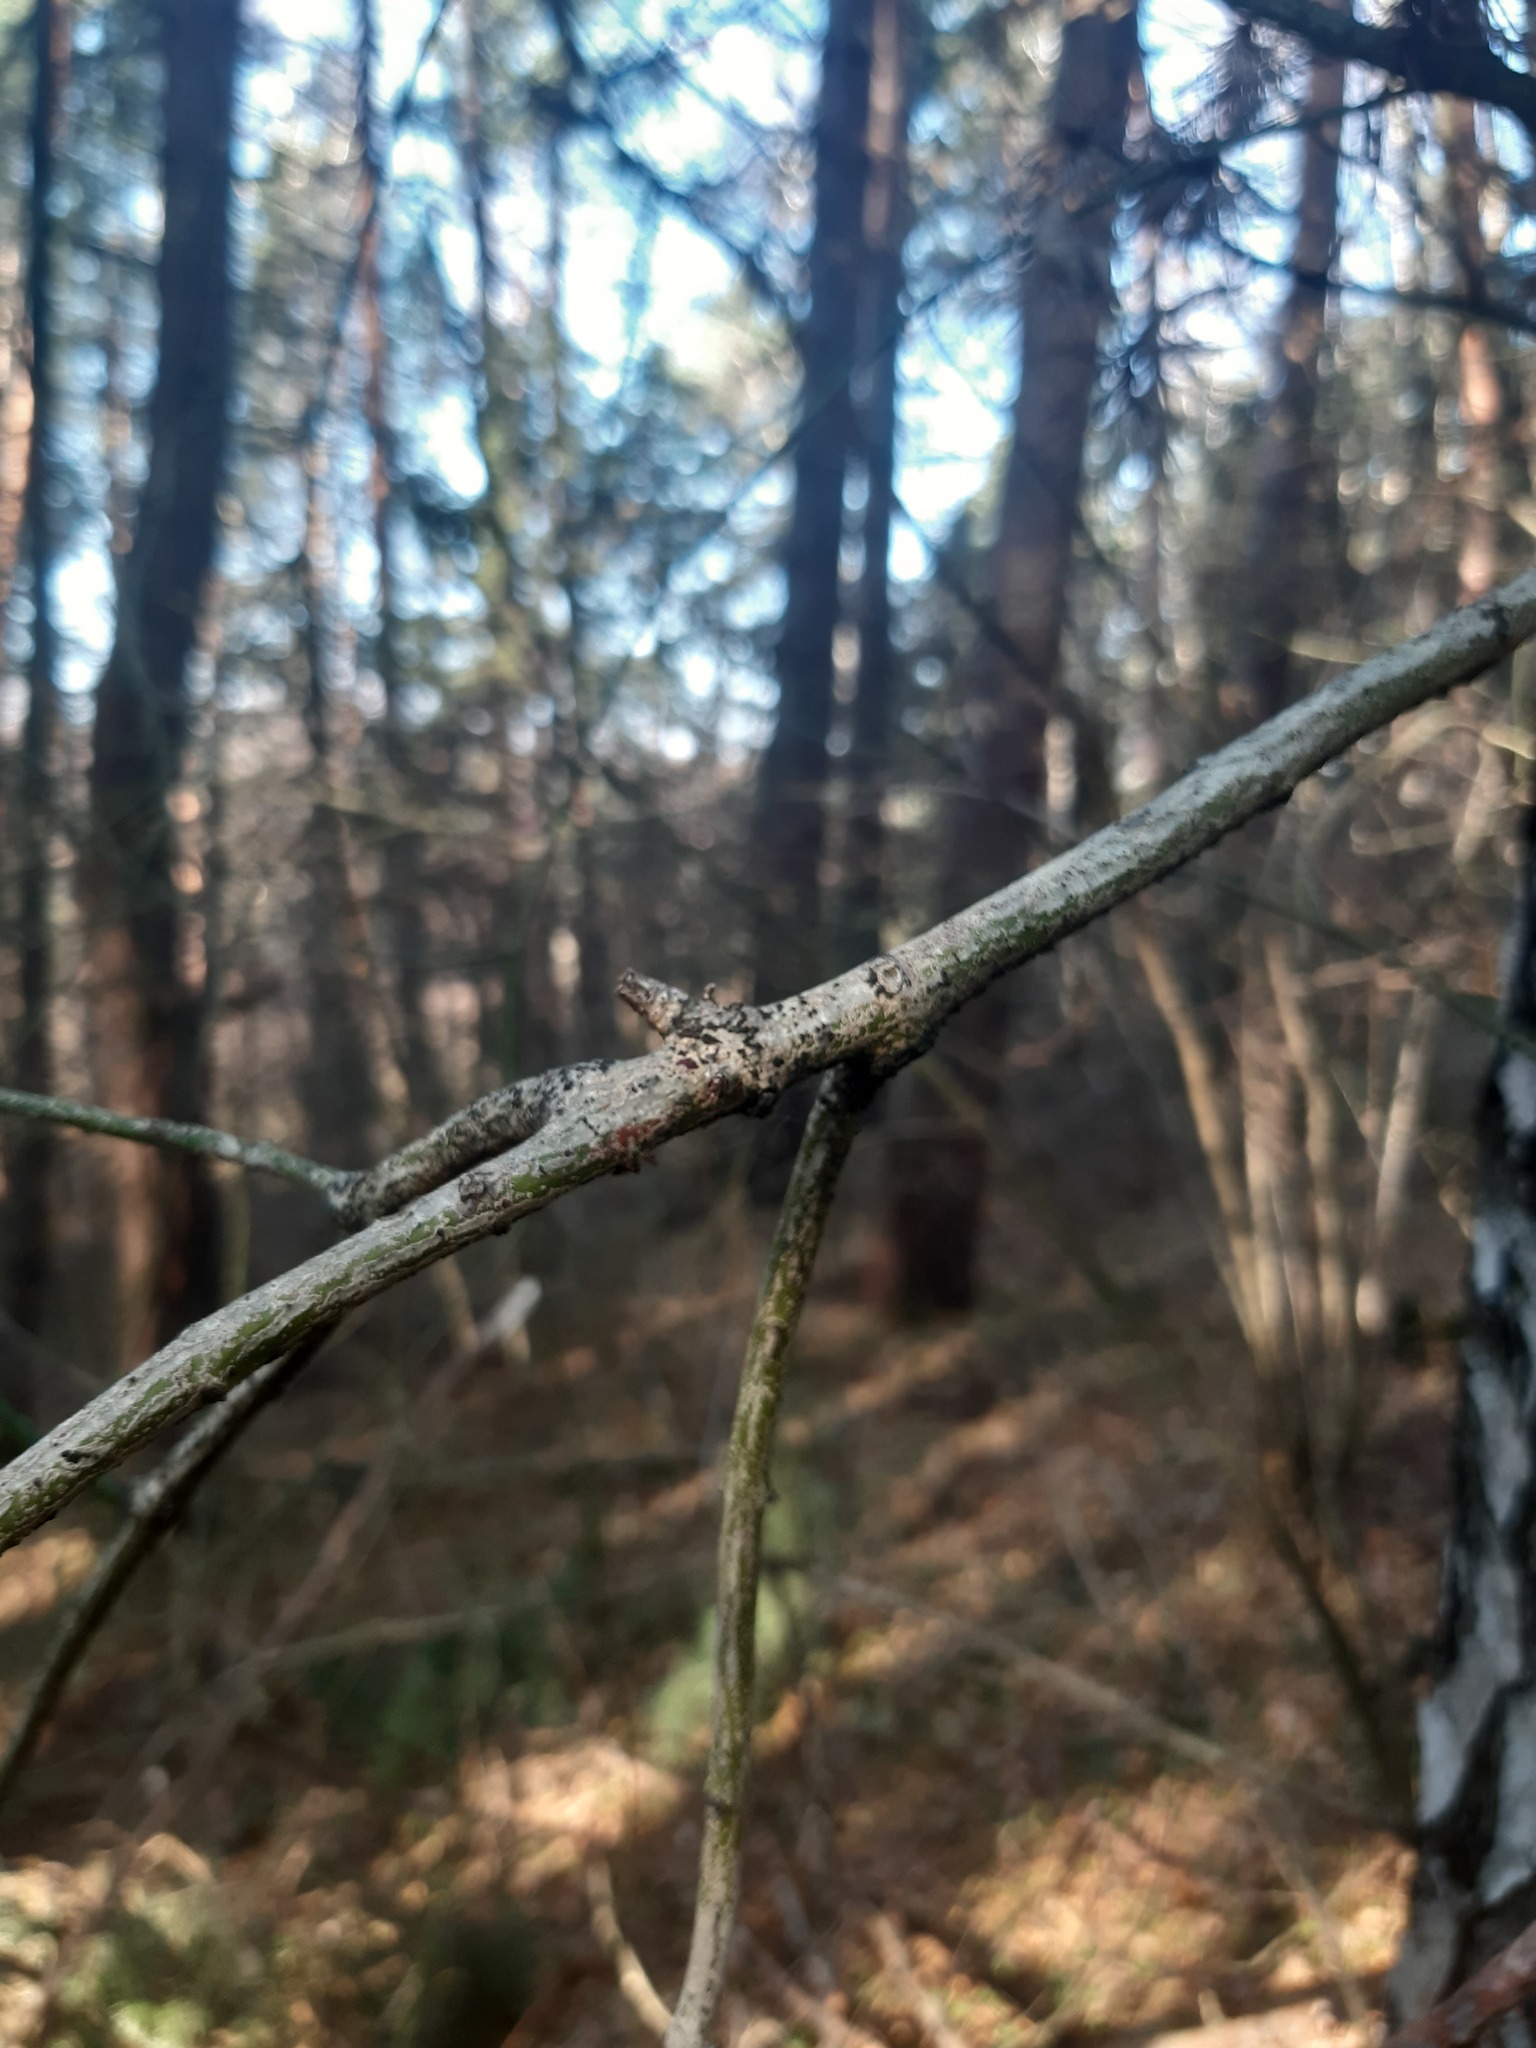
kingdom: Plantae
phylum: Tracheophyta
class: Magnoliopsida
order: Celastrales
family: Celastraceae
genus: Euonymus
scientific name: Euonymus verrucosus
